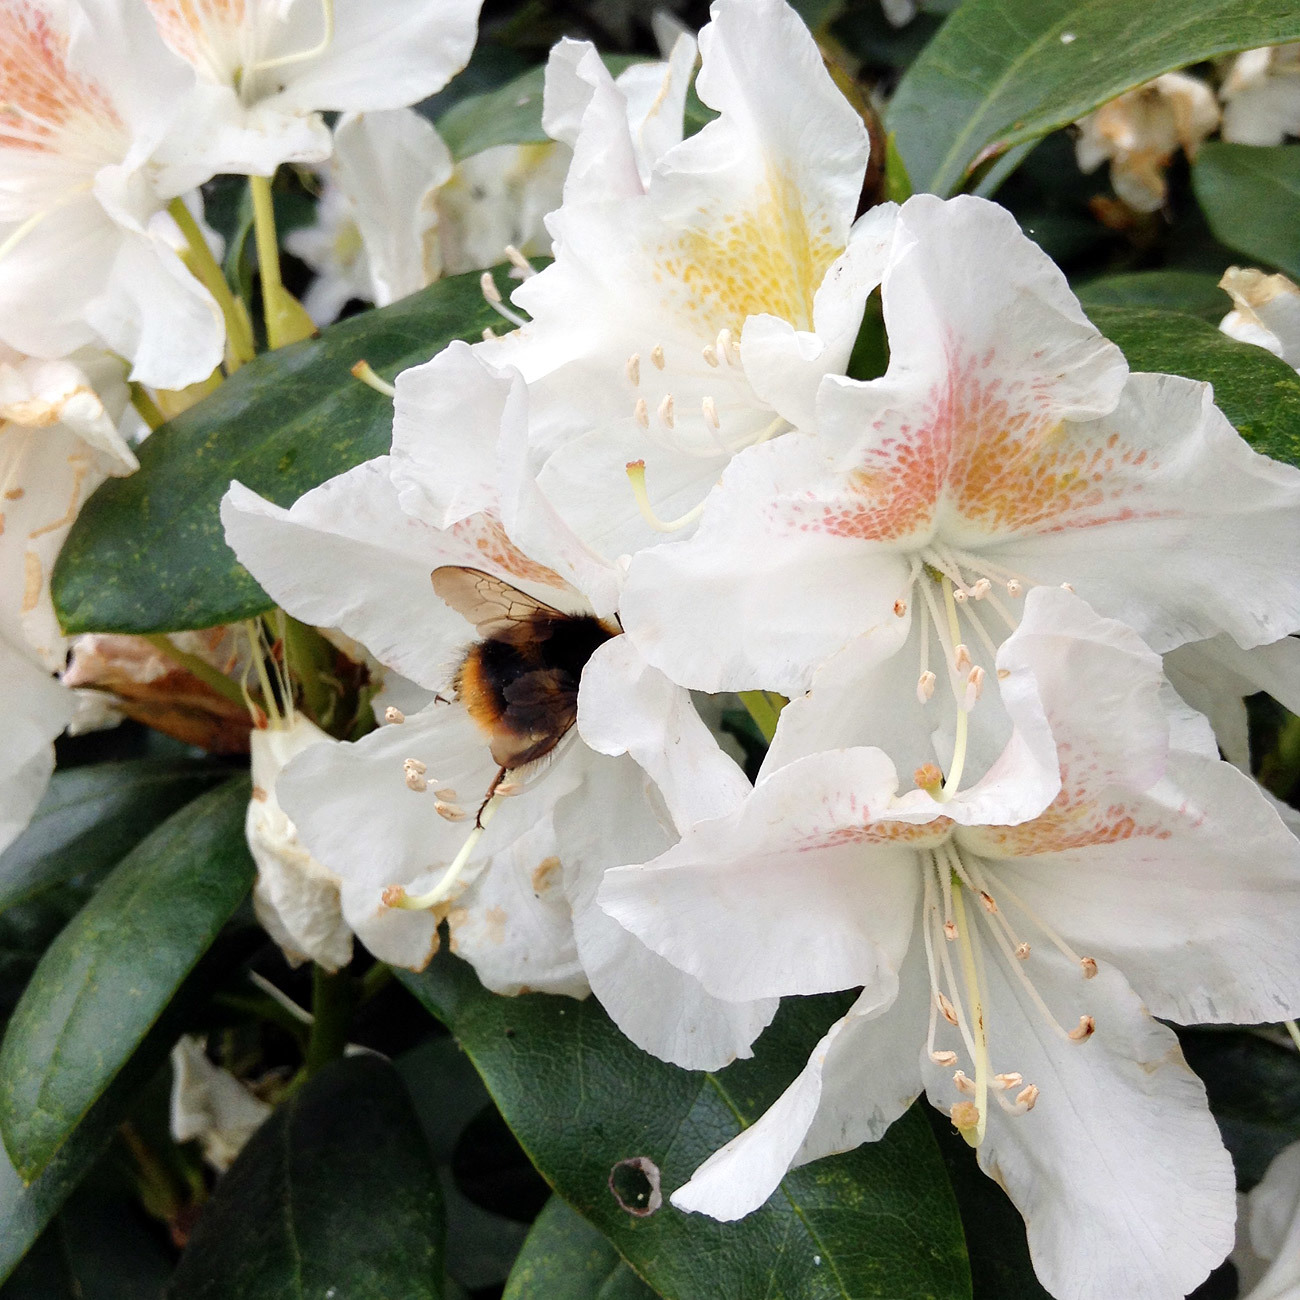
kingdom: Animalia
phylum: Arthropoda
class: Insecta
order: Hymenoptera
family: Apidae
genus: Bombus
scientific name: Bombus pratorum
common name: Early humble-bee
